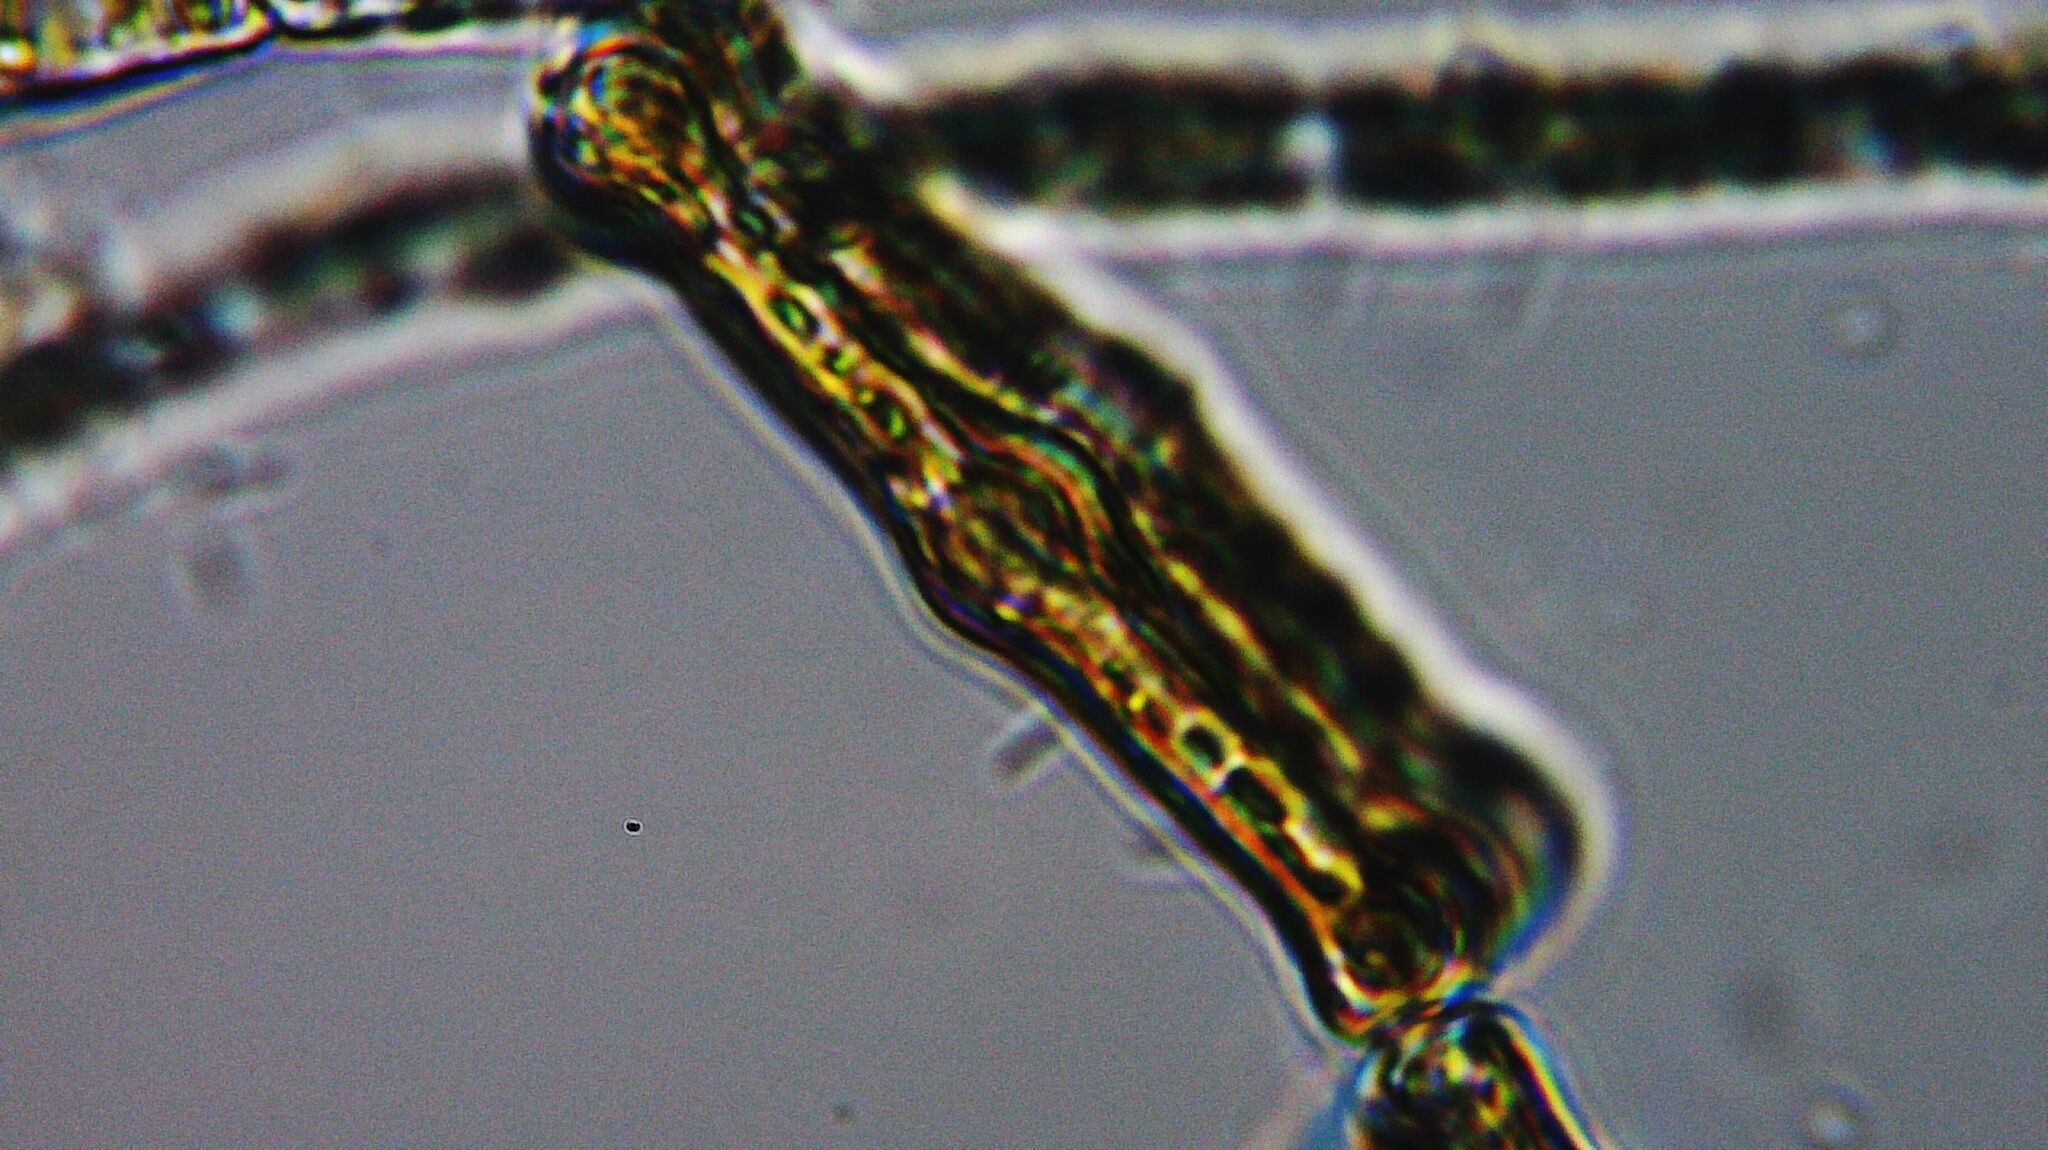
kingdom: Chromista
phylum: Ochrophyta
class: Bacillariophyceae
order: Tabellariales
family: Tabellariaceae
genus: Tabellaria
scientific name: Tabellaria flocculosa
